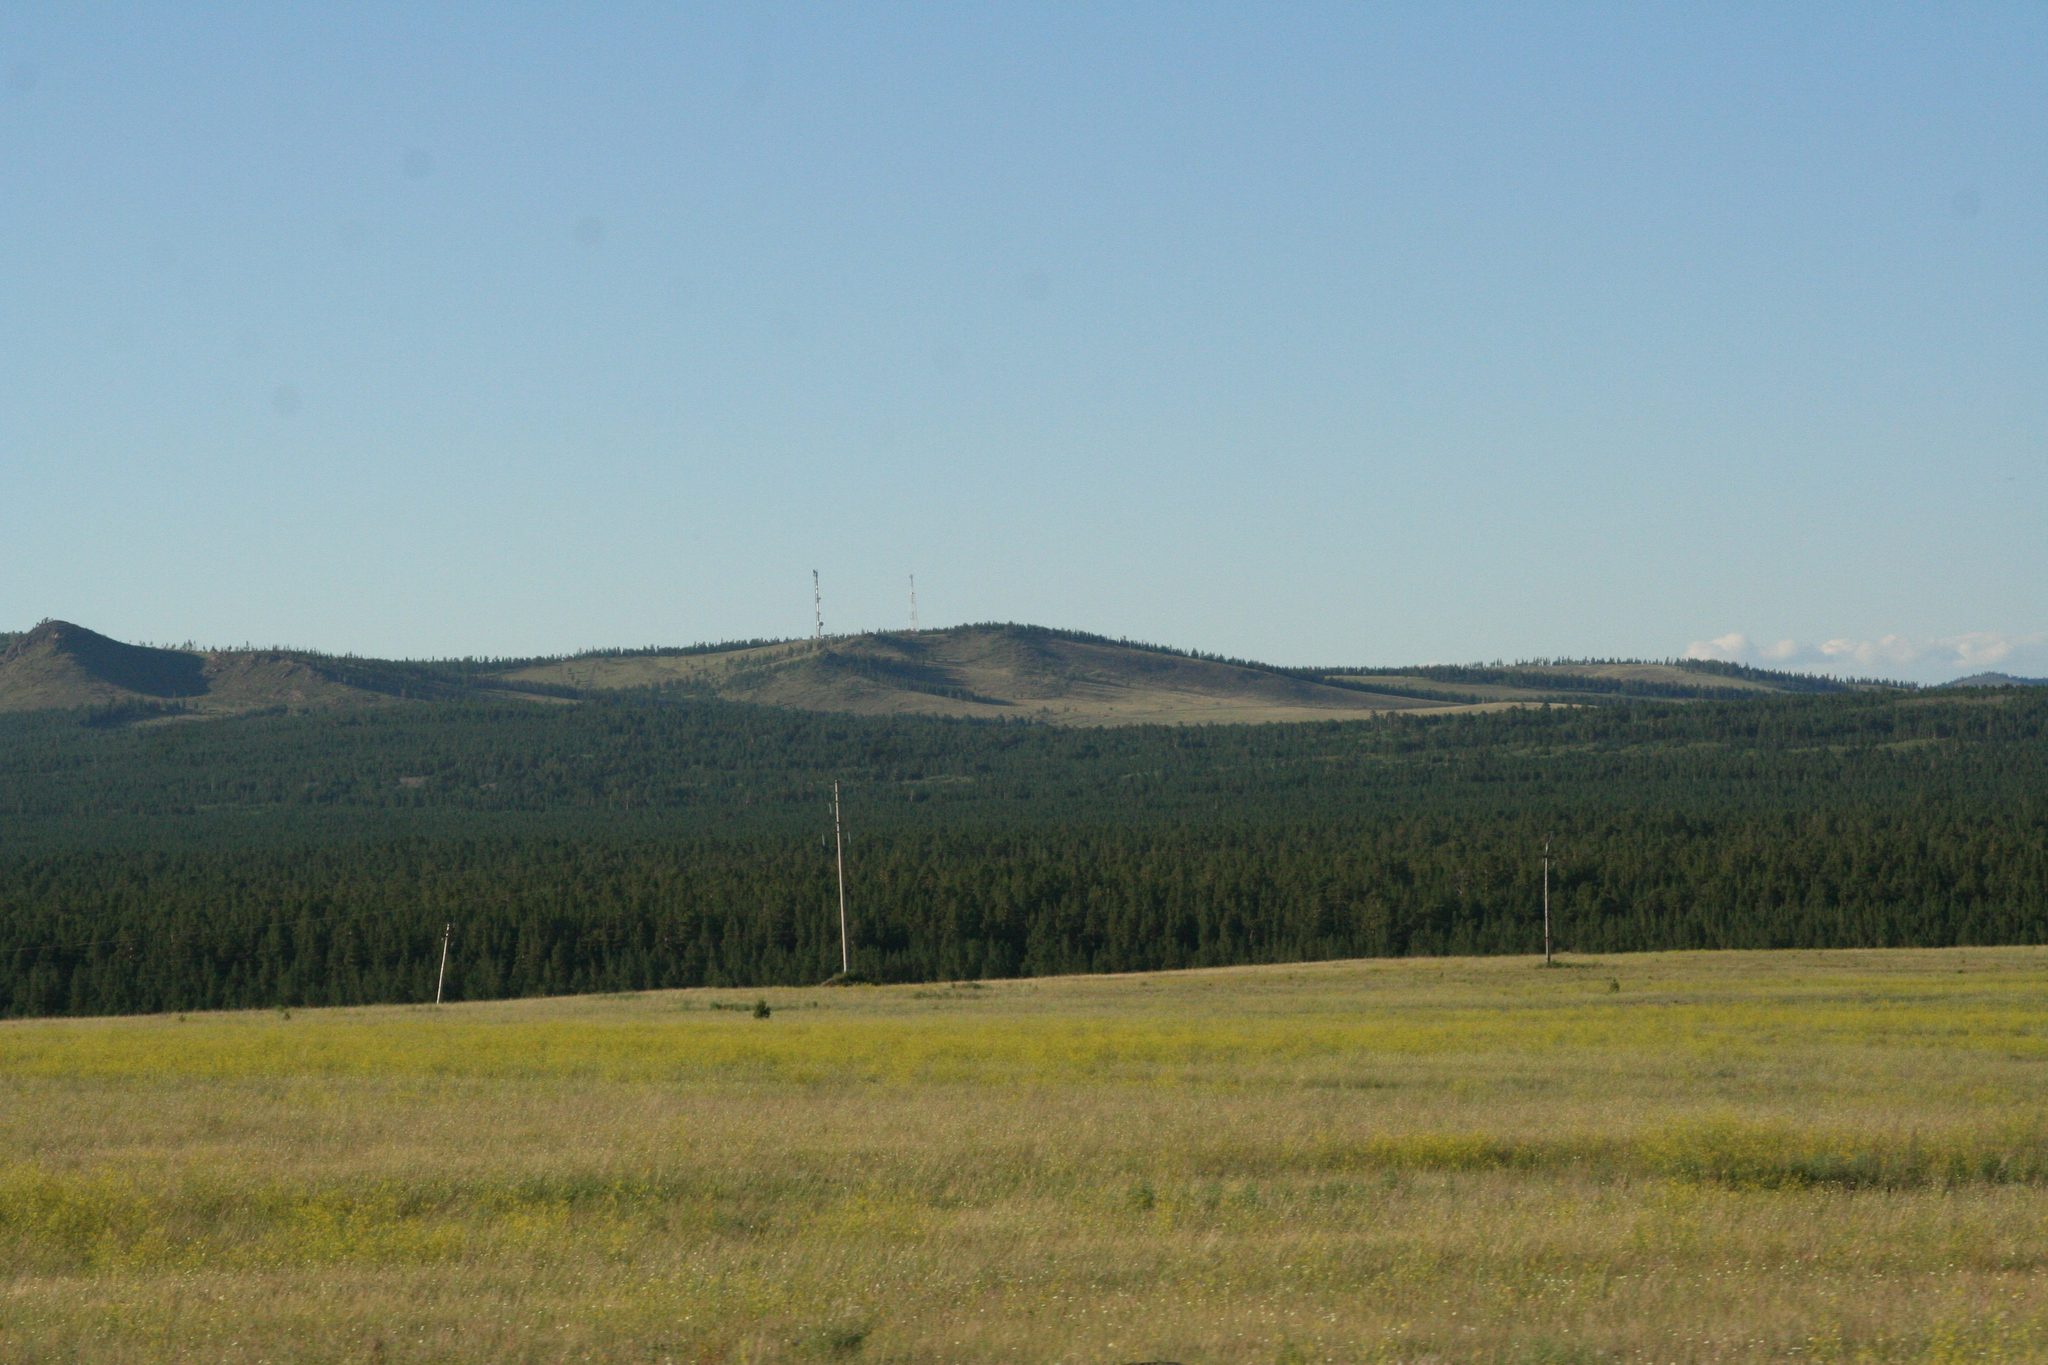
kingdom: Plantae
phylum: Tracheophyta
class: Pinopsida
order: Pinales
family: Pinaceae
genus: Pinus
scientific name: Pinus sylvestris
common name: Scots pine
